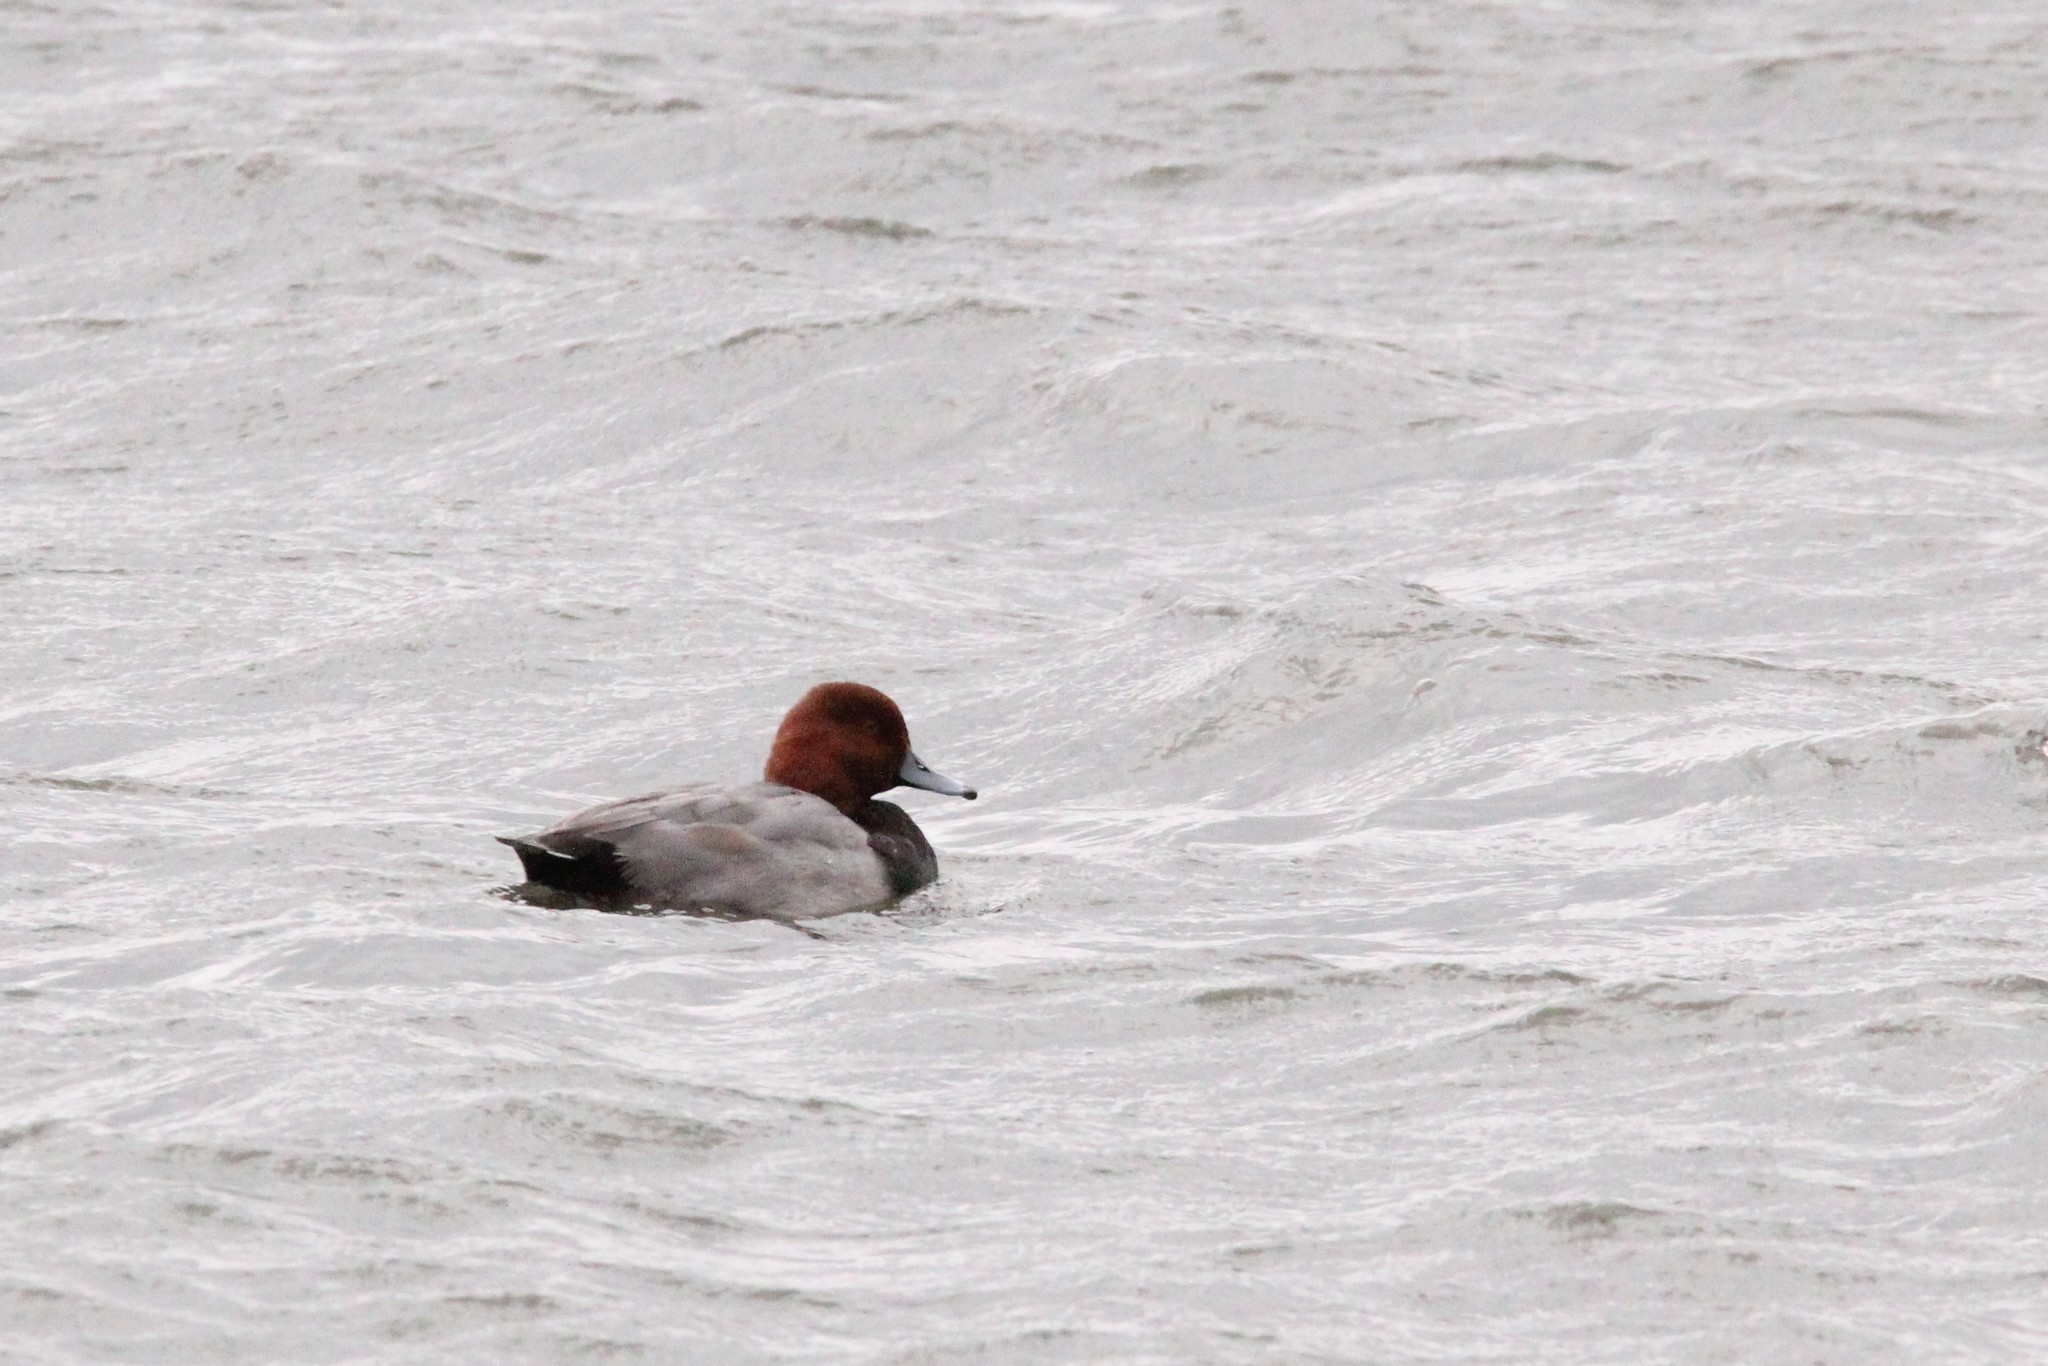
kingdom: Animalia
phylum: Chordata
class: Aves
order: Anseriformes
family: Anatidae
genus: Aythya
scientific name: Aythya americana
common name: Redhead
